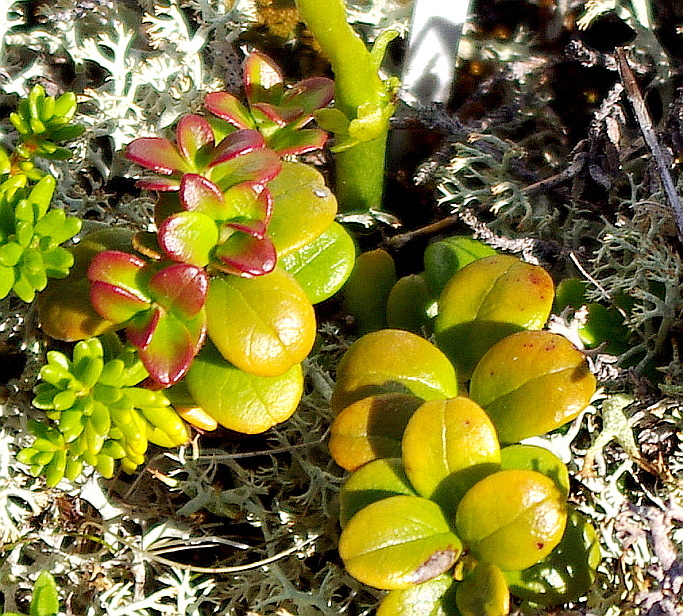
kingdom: Plantae
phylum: Tracheophyta
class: Magnoliopsida
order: Ericales
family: Ericaceae
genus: Vaccinium
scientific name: Vaccinium vitis-idaea
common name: Cowberry
